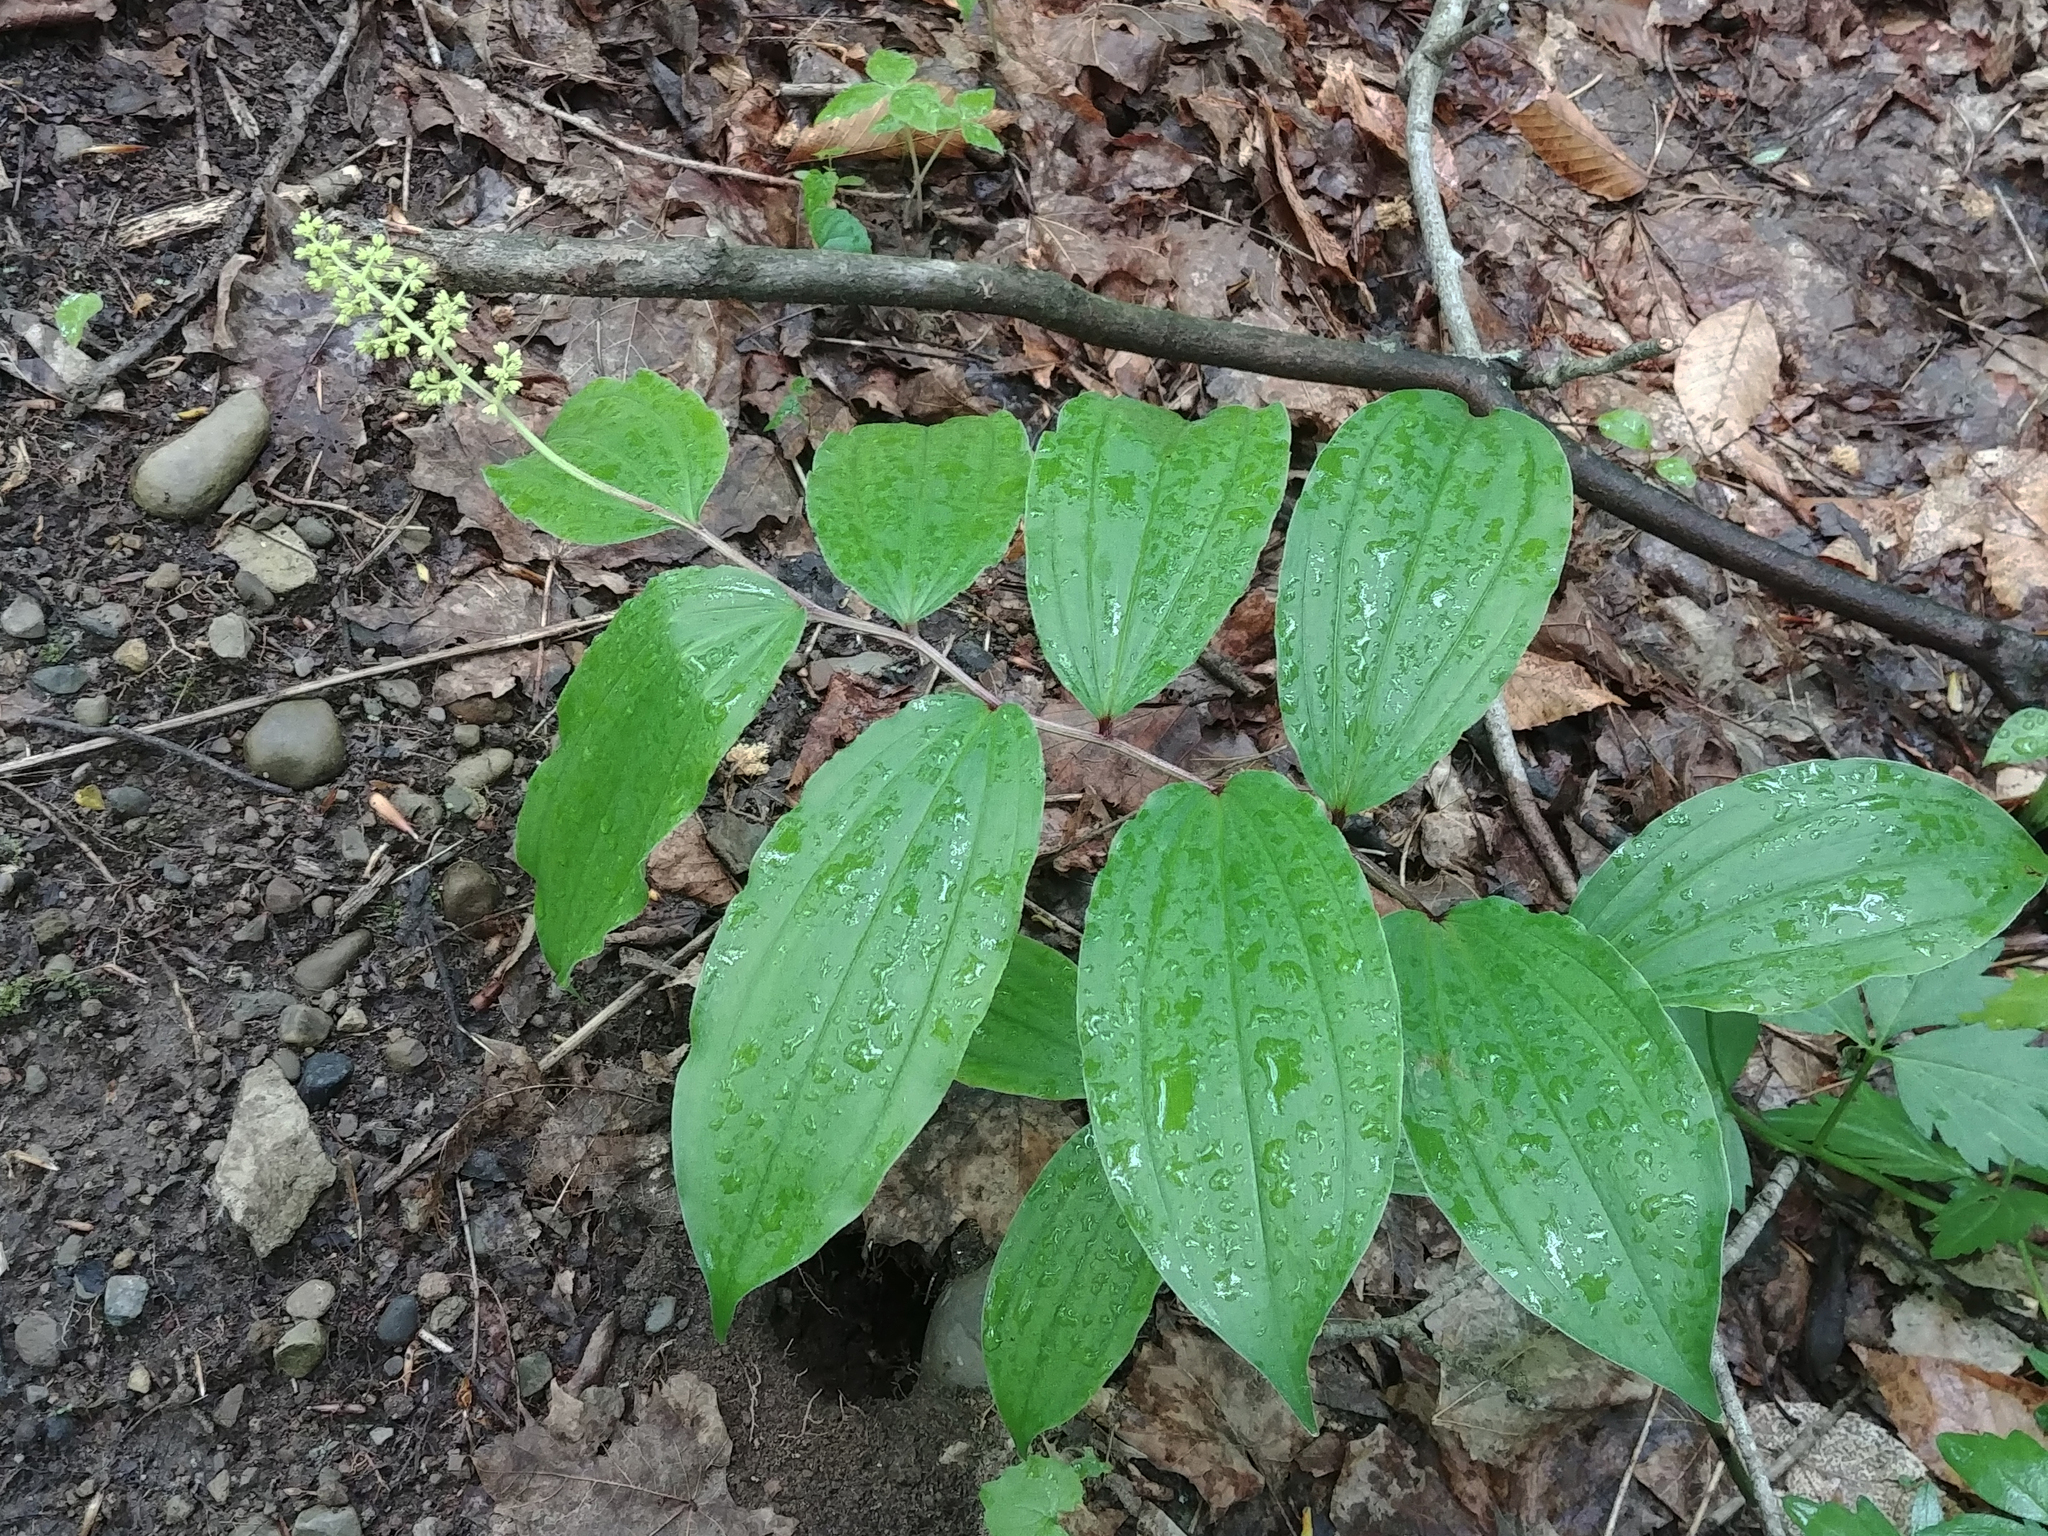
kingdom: Plantae
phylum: Tracheophyta
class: Liliopsida
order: Asparagales
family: Asparagaceae
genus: Maianthemum
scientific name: Maianthemum racemosum
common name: False spikenard
